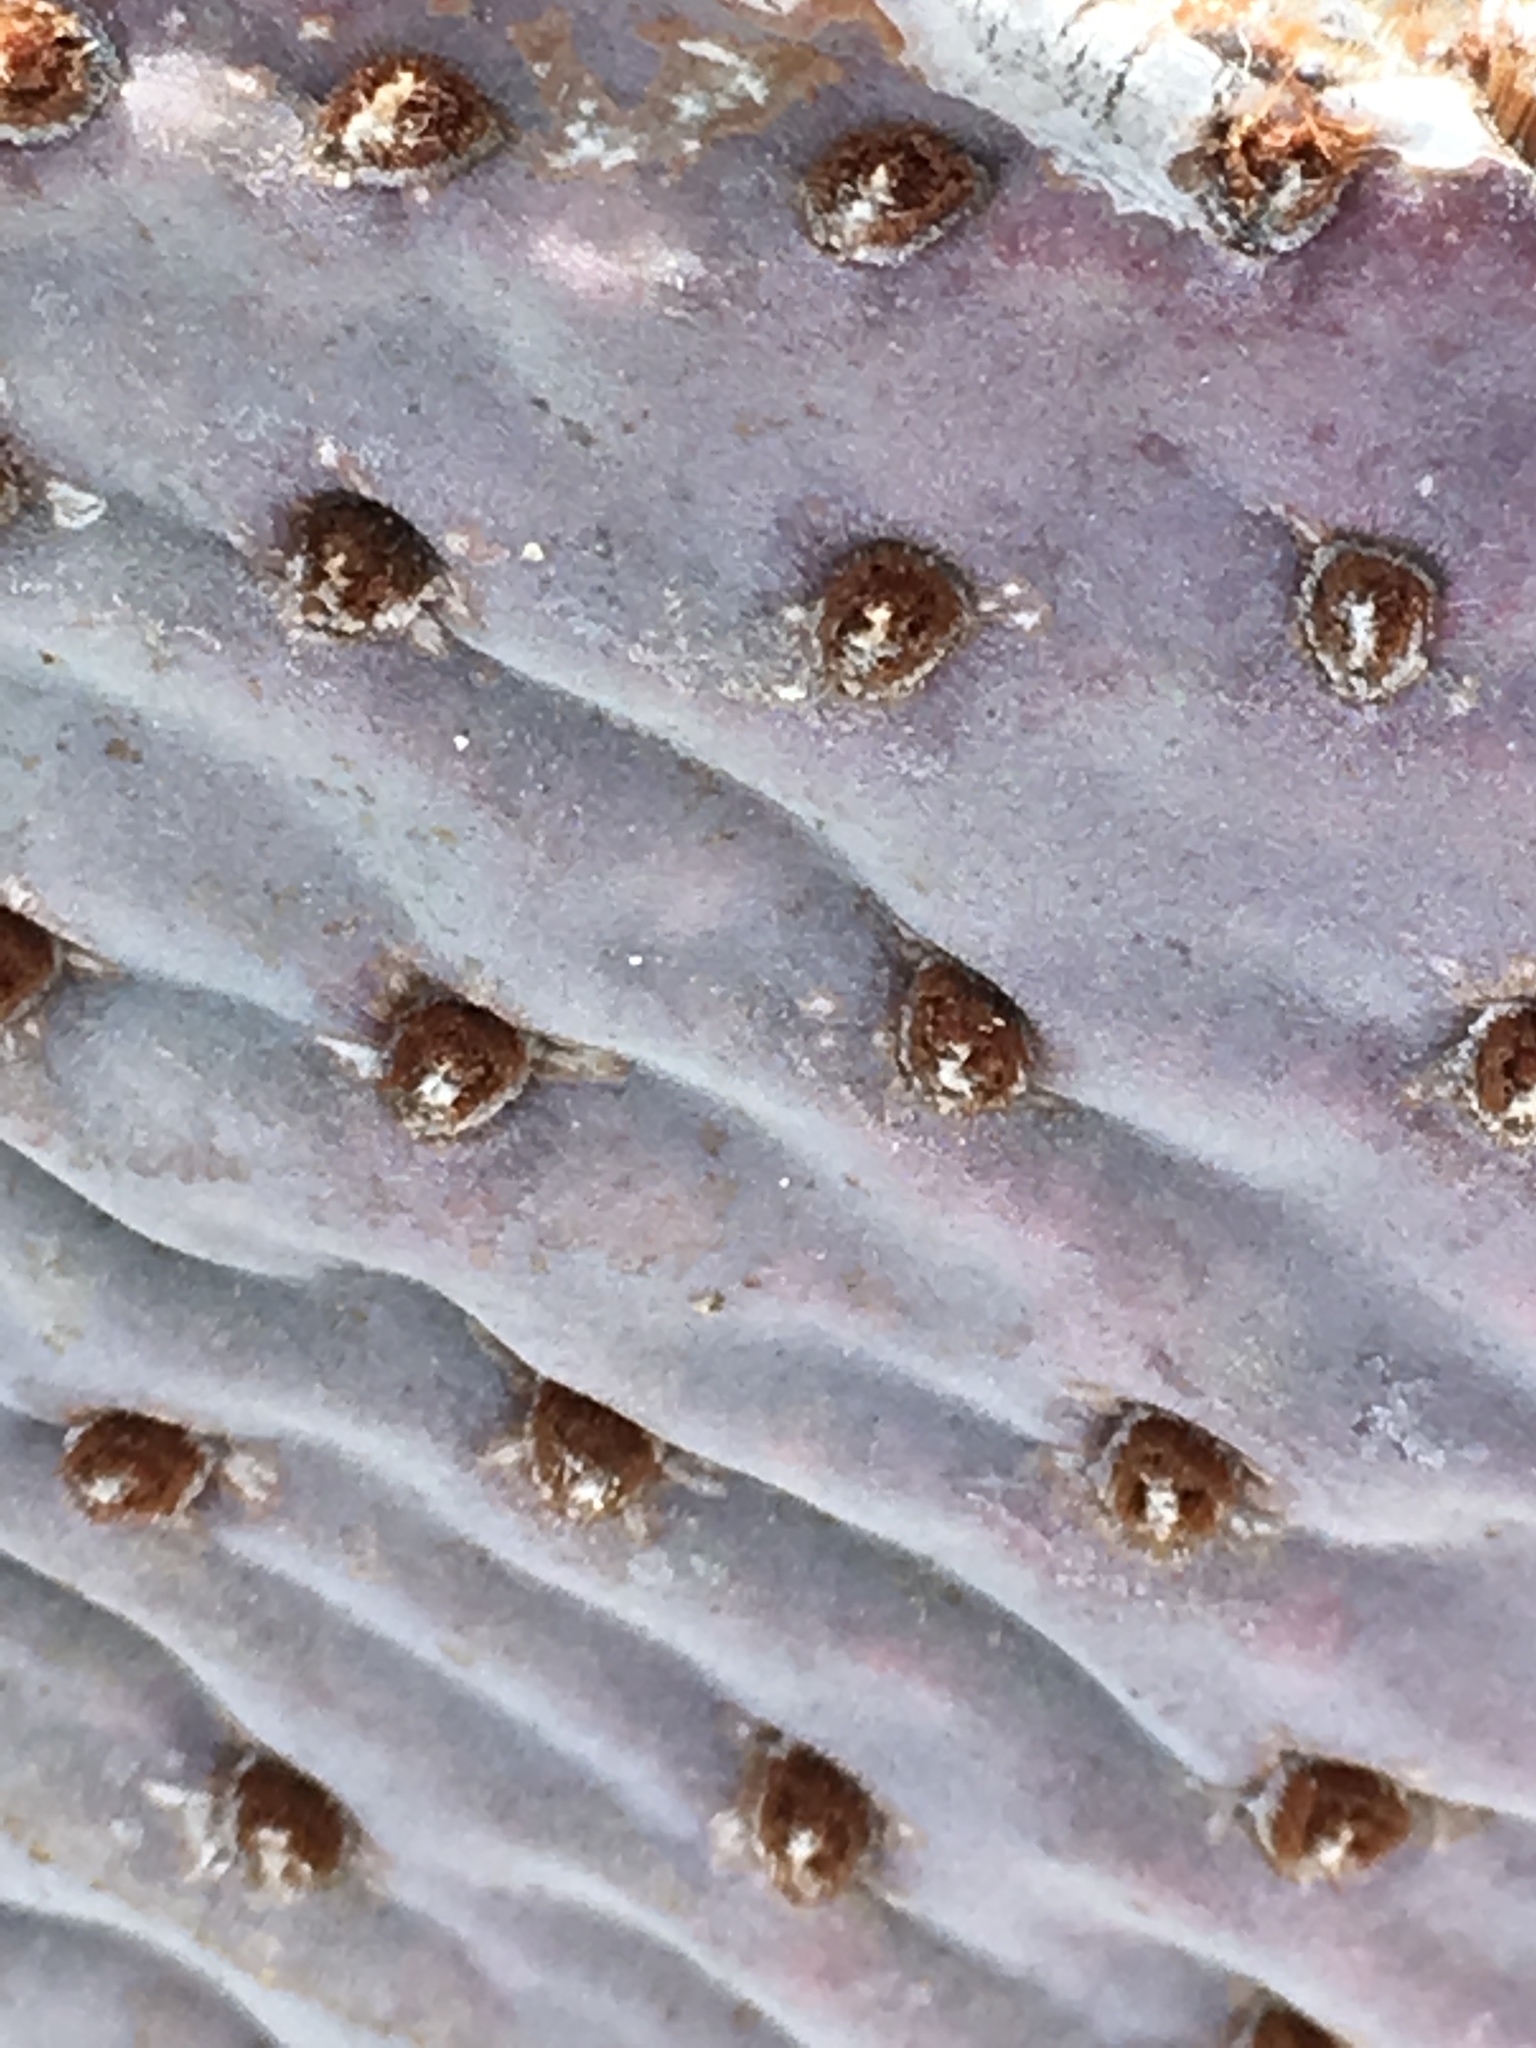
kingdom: Plantae
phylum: Tracheophyta
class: Magnoliopsida
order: Caryophyllales
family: Cactaceae
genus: Opuntia
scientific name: Opuntia basilaris
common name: Beavertail prickly-pear
